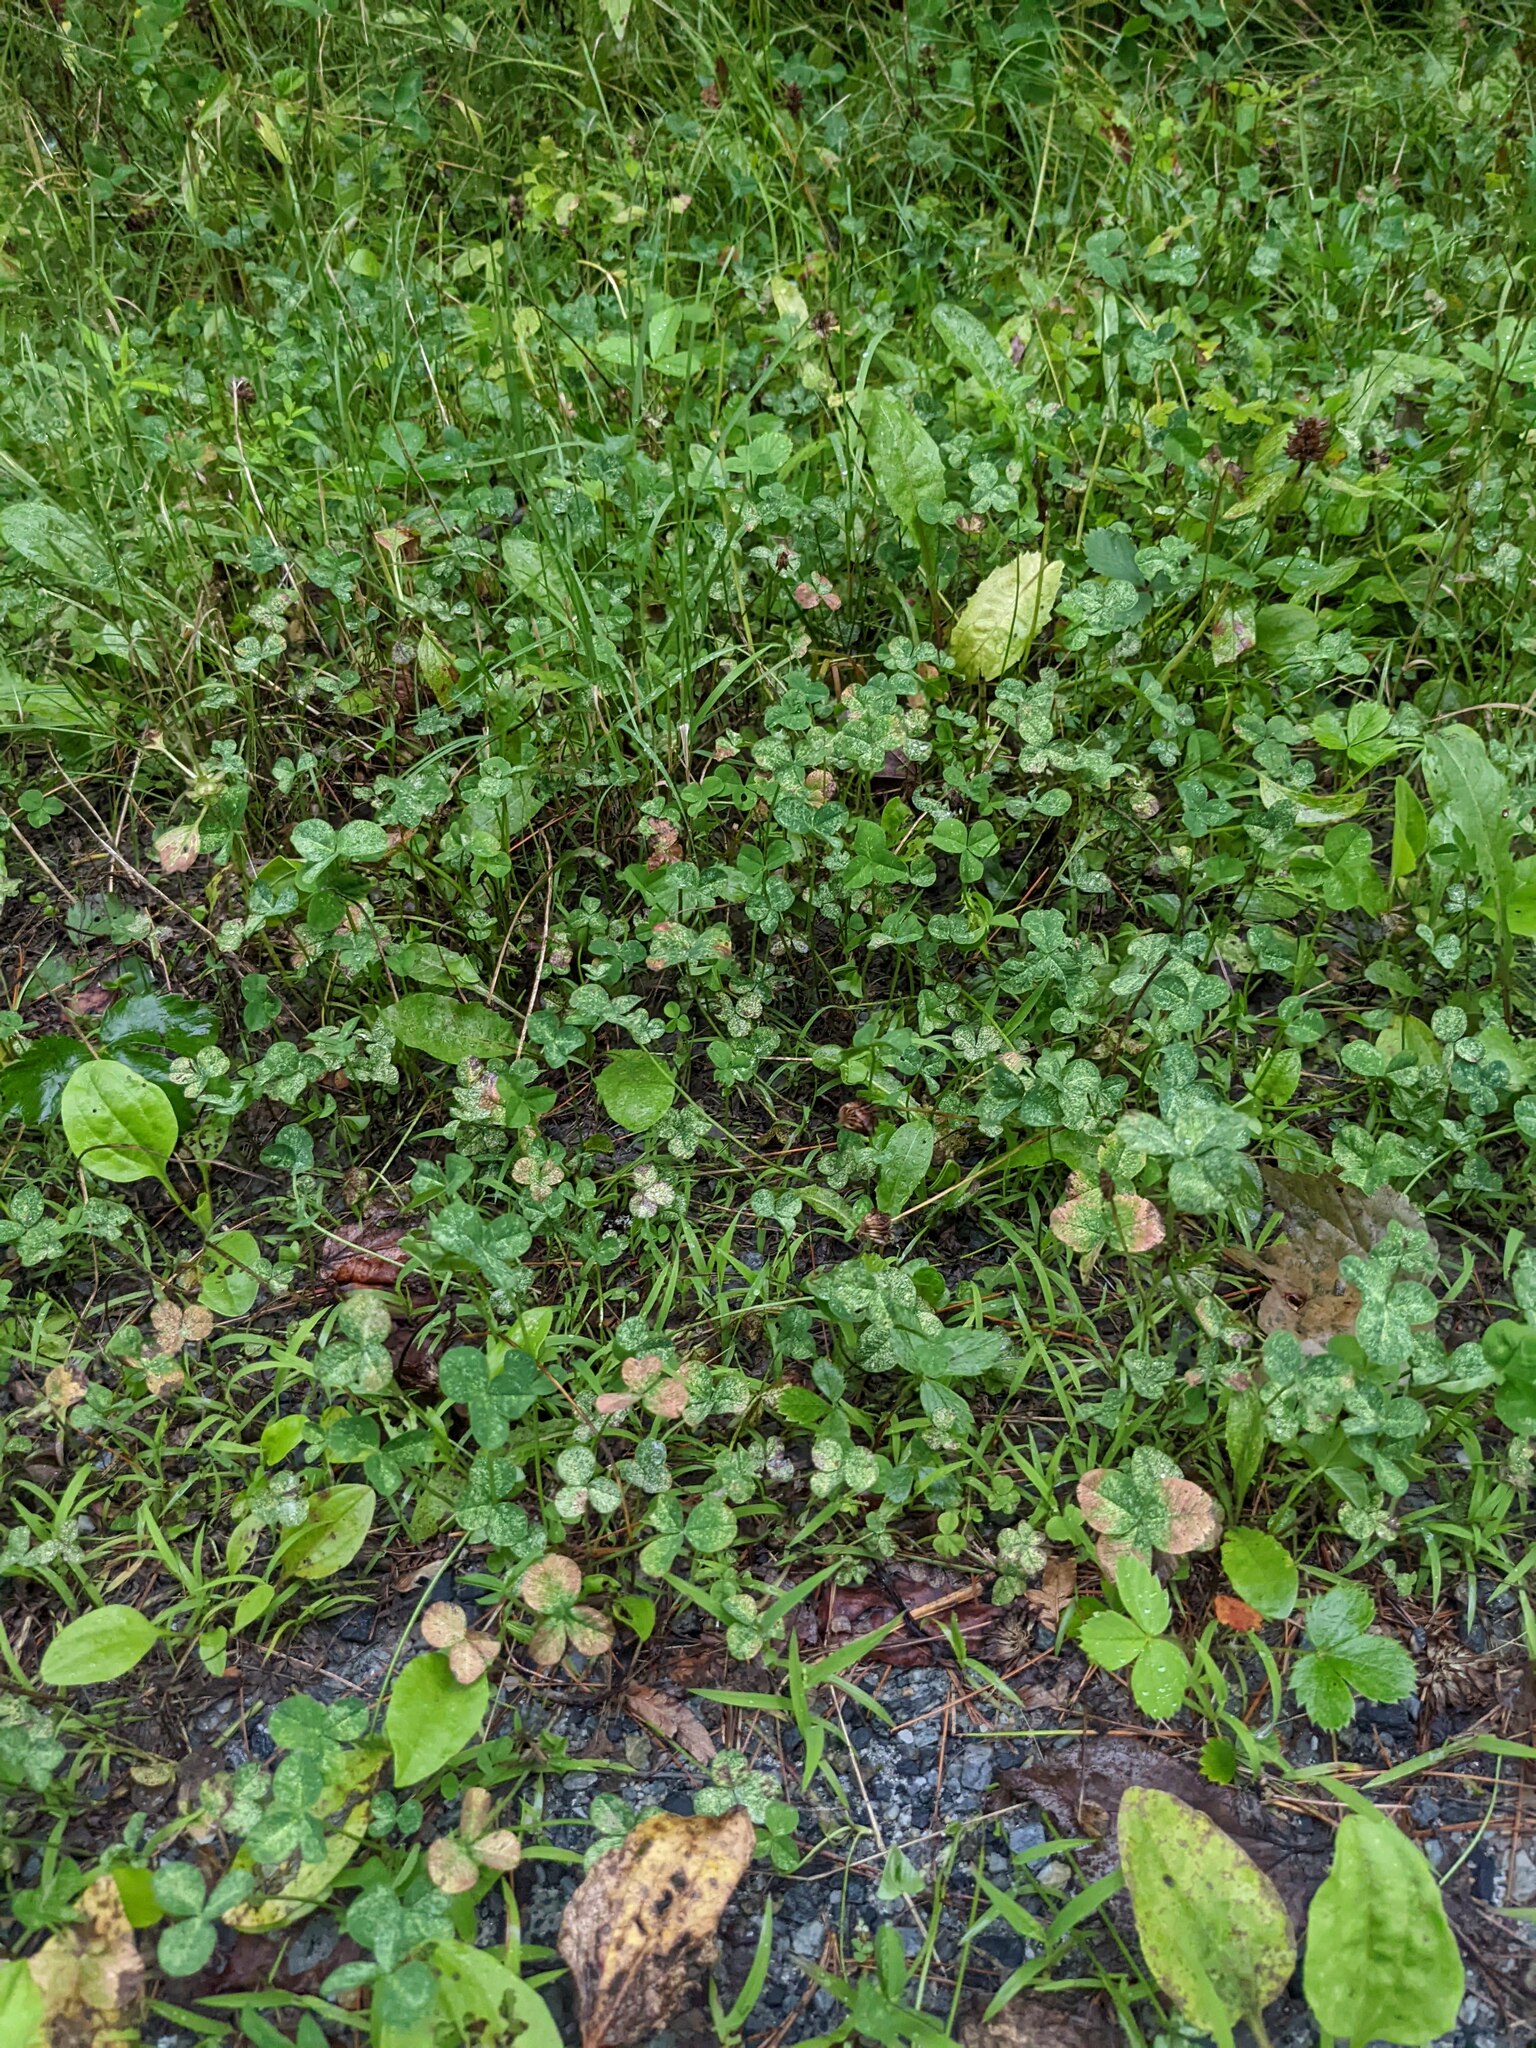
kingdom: Plantae
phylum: Tracheophyta
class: Magnoliopsida
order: Fabales
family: Fabaceae
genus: Trifolium
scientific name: Trifolium repens
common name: White clover
